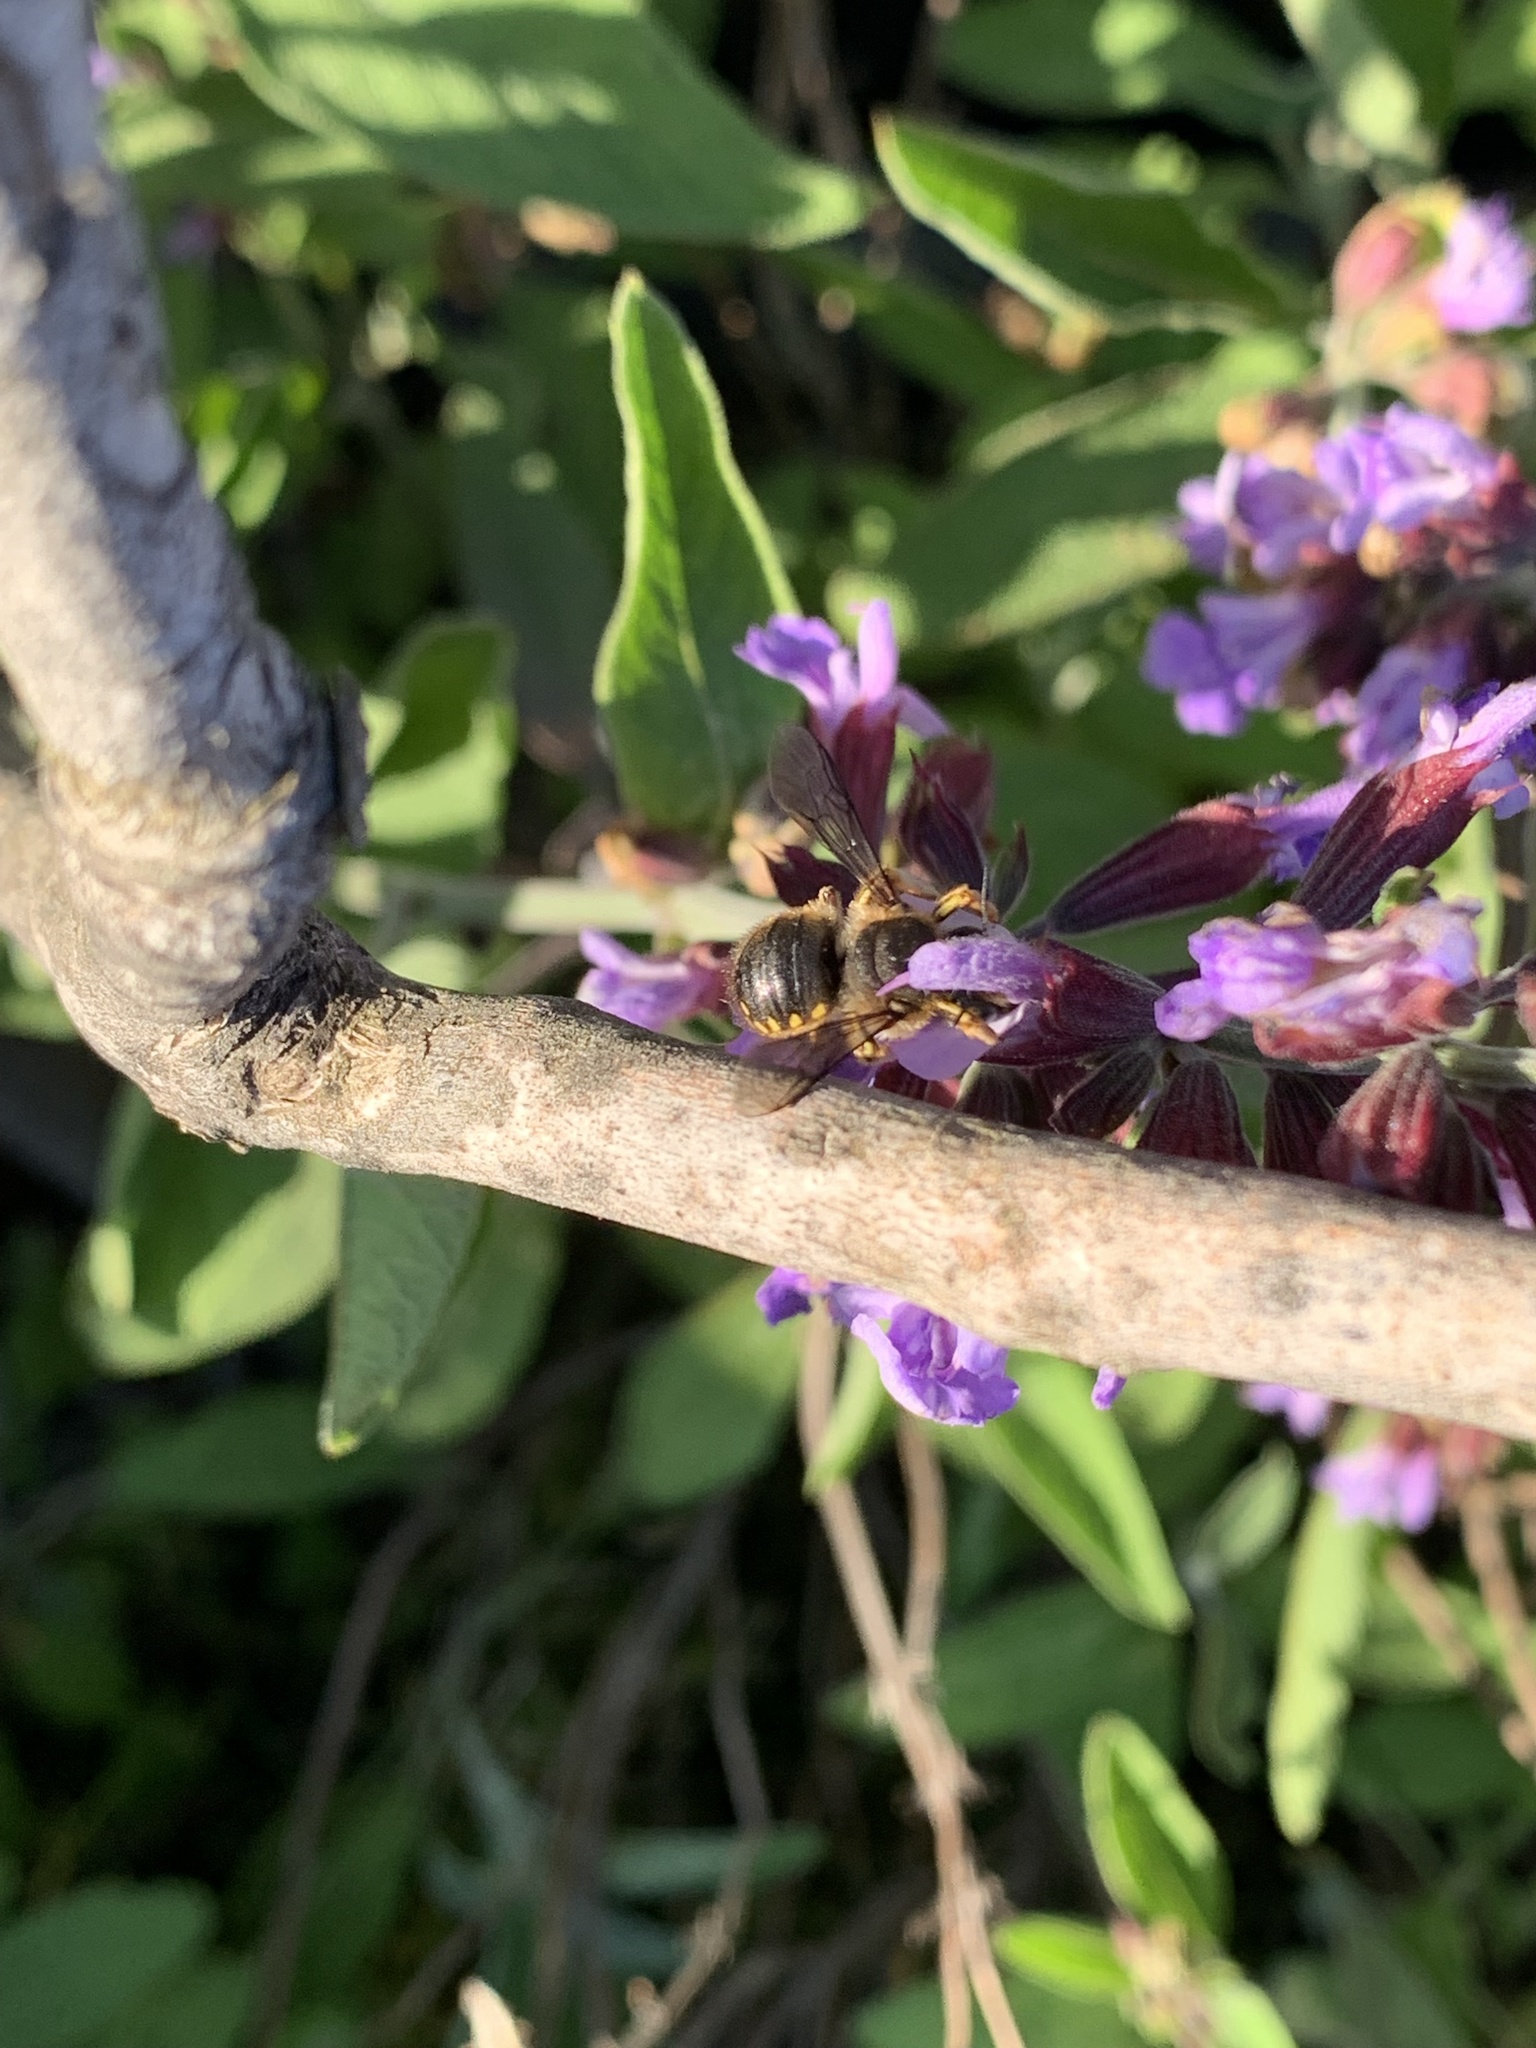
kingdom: Animalia
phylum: Arthropoda
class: Insecta
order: Hymenoptera
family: Megachilidae
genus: Anthidium
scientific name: Anthidium manicatum
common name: Wool carder bee
